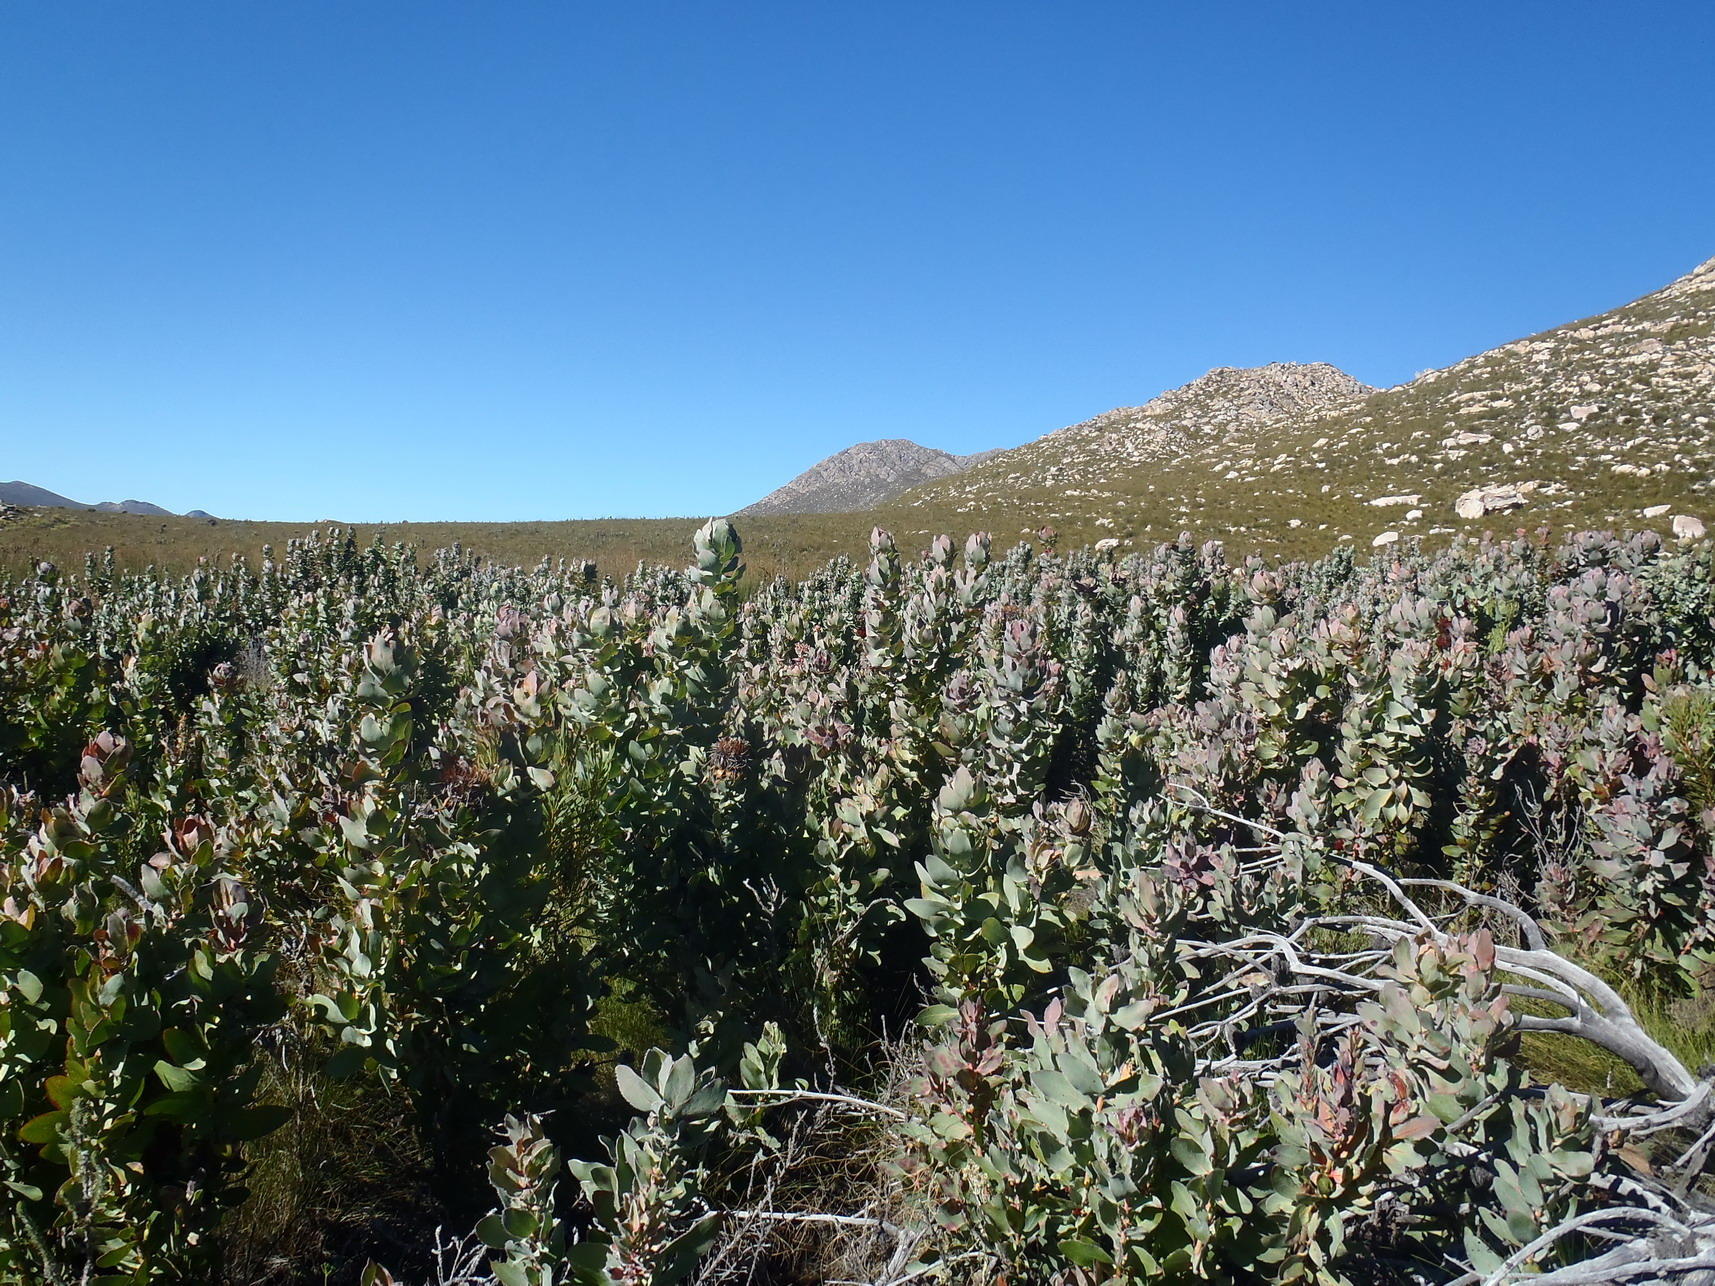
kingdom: Plantae
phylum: Tracheophyta
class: Magnoliopsida
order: Proteales
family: Proteaceae
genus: Protea
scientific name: Protea eximia
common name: Broad-leaved sugarbush
